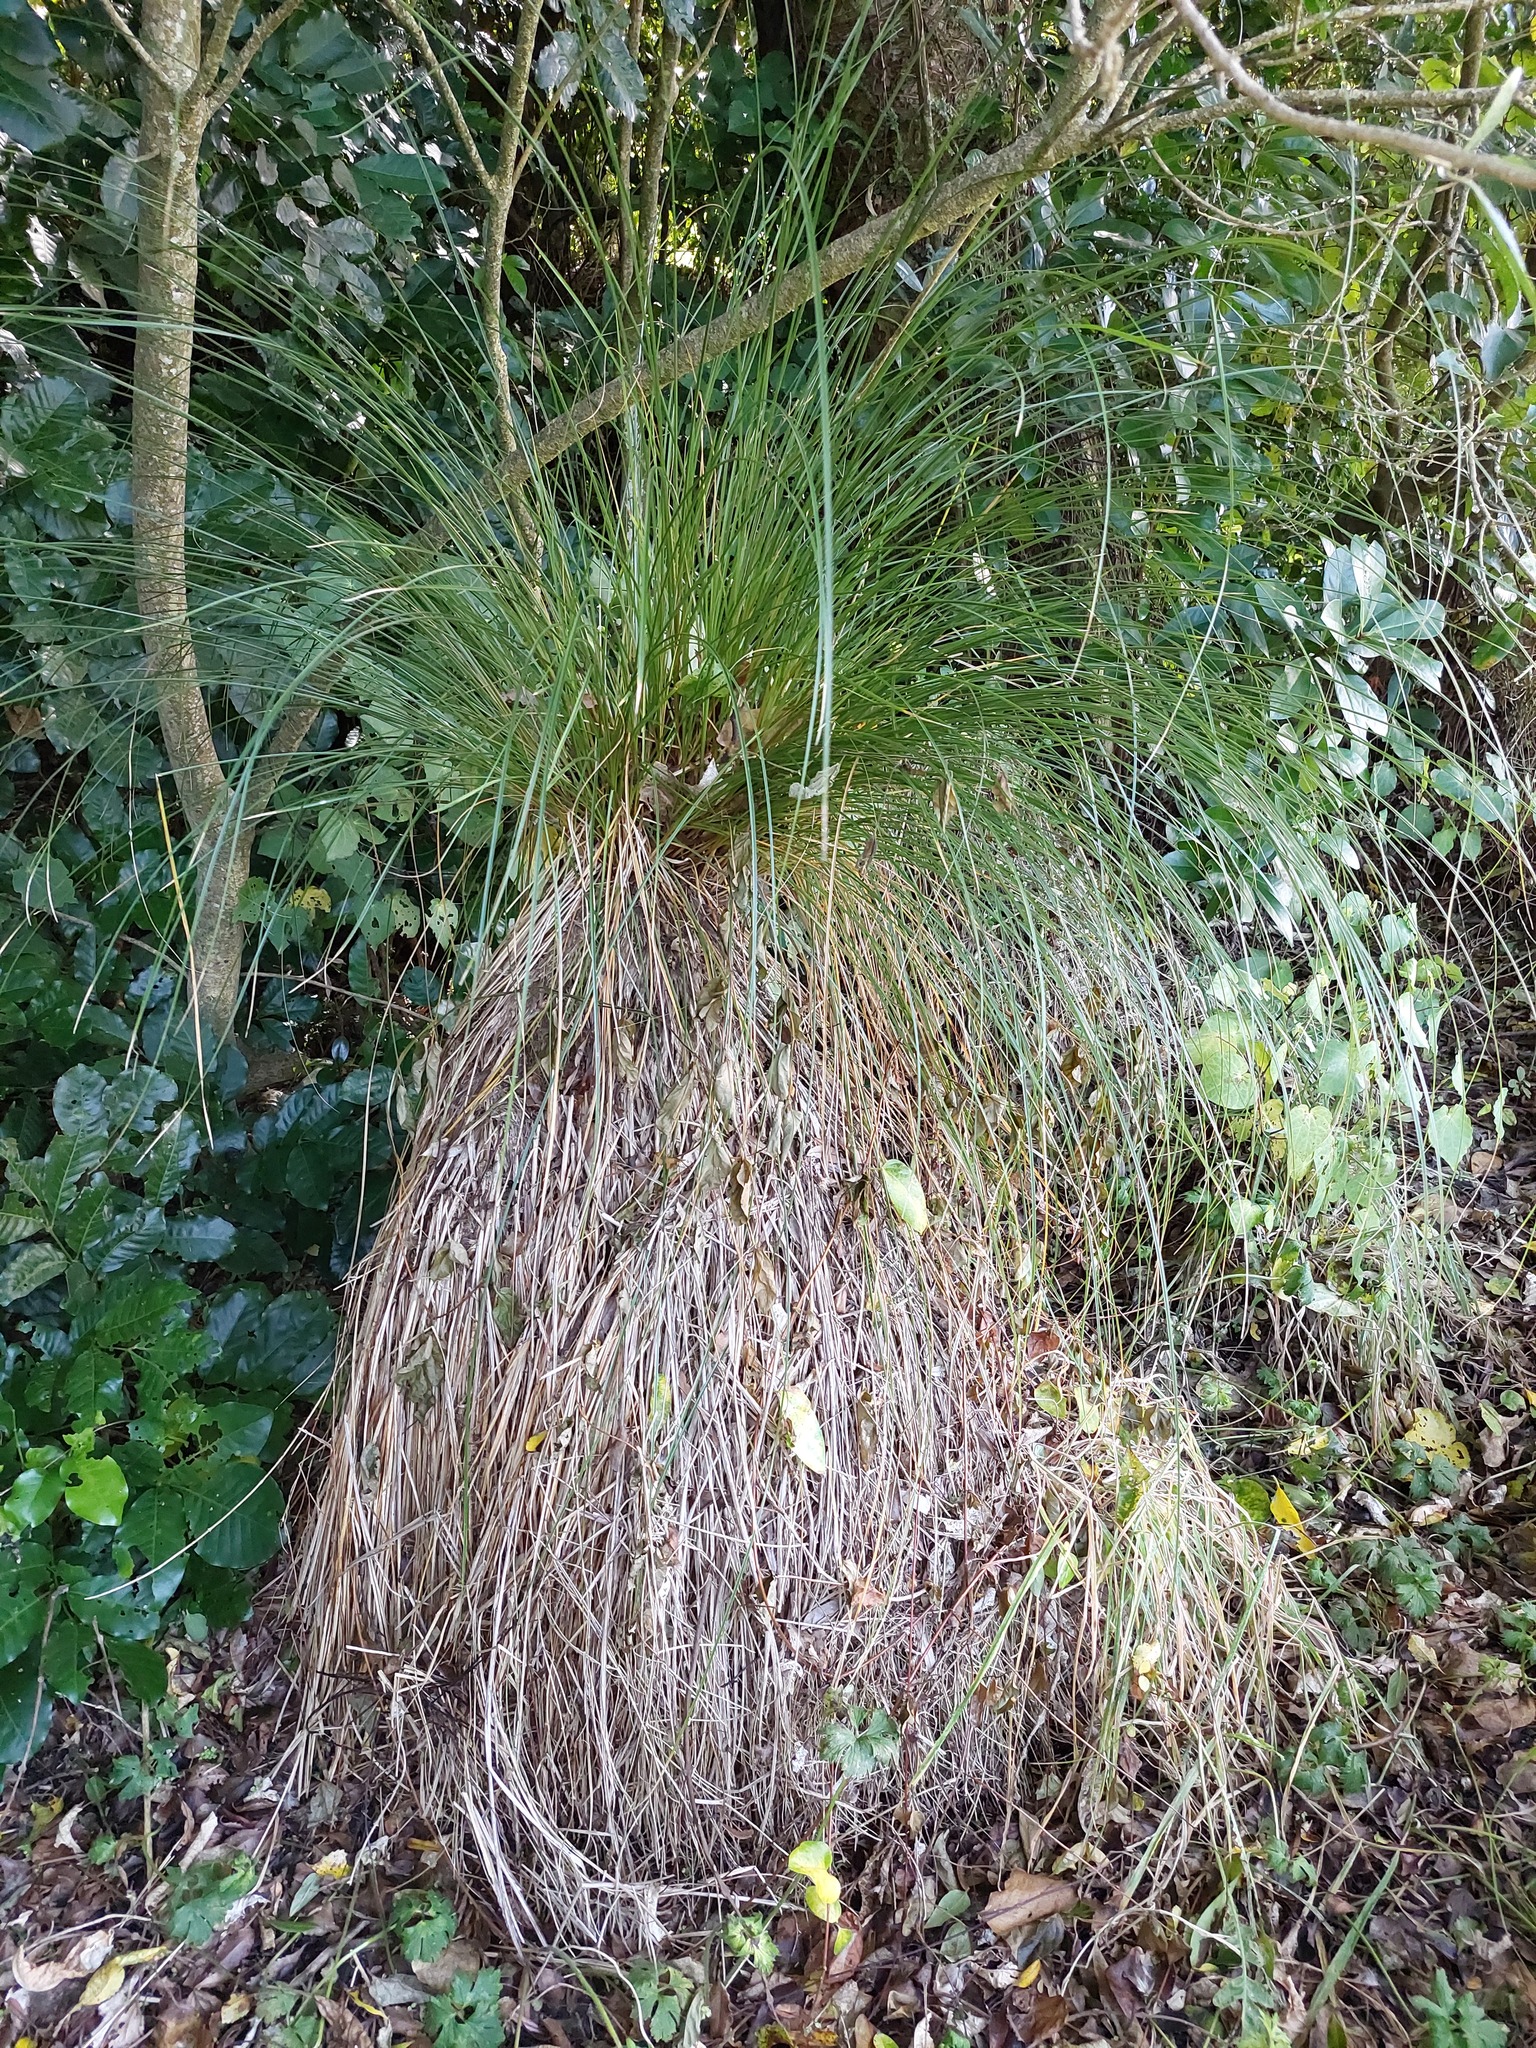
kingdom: Plantae
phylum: Tracheophyta
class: Liliopsida
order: Poales
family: Cyperaceae
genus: Carex
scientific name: Carex secta
